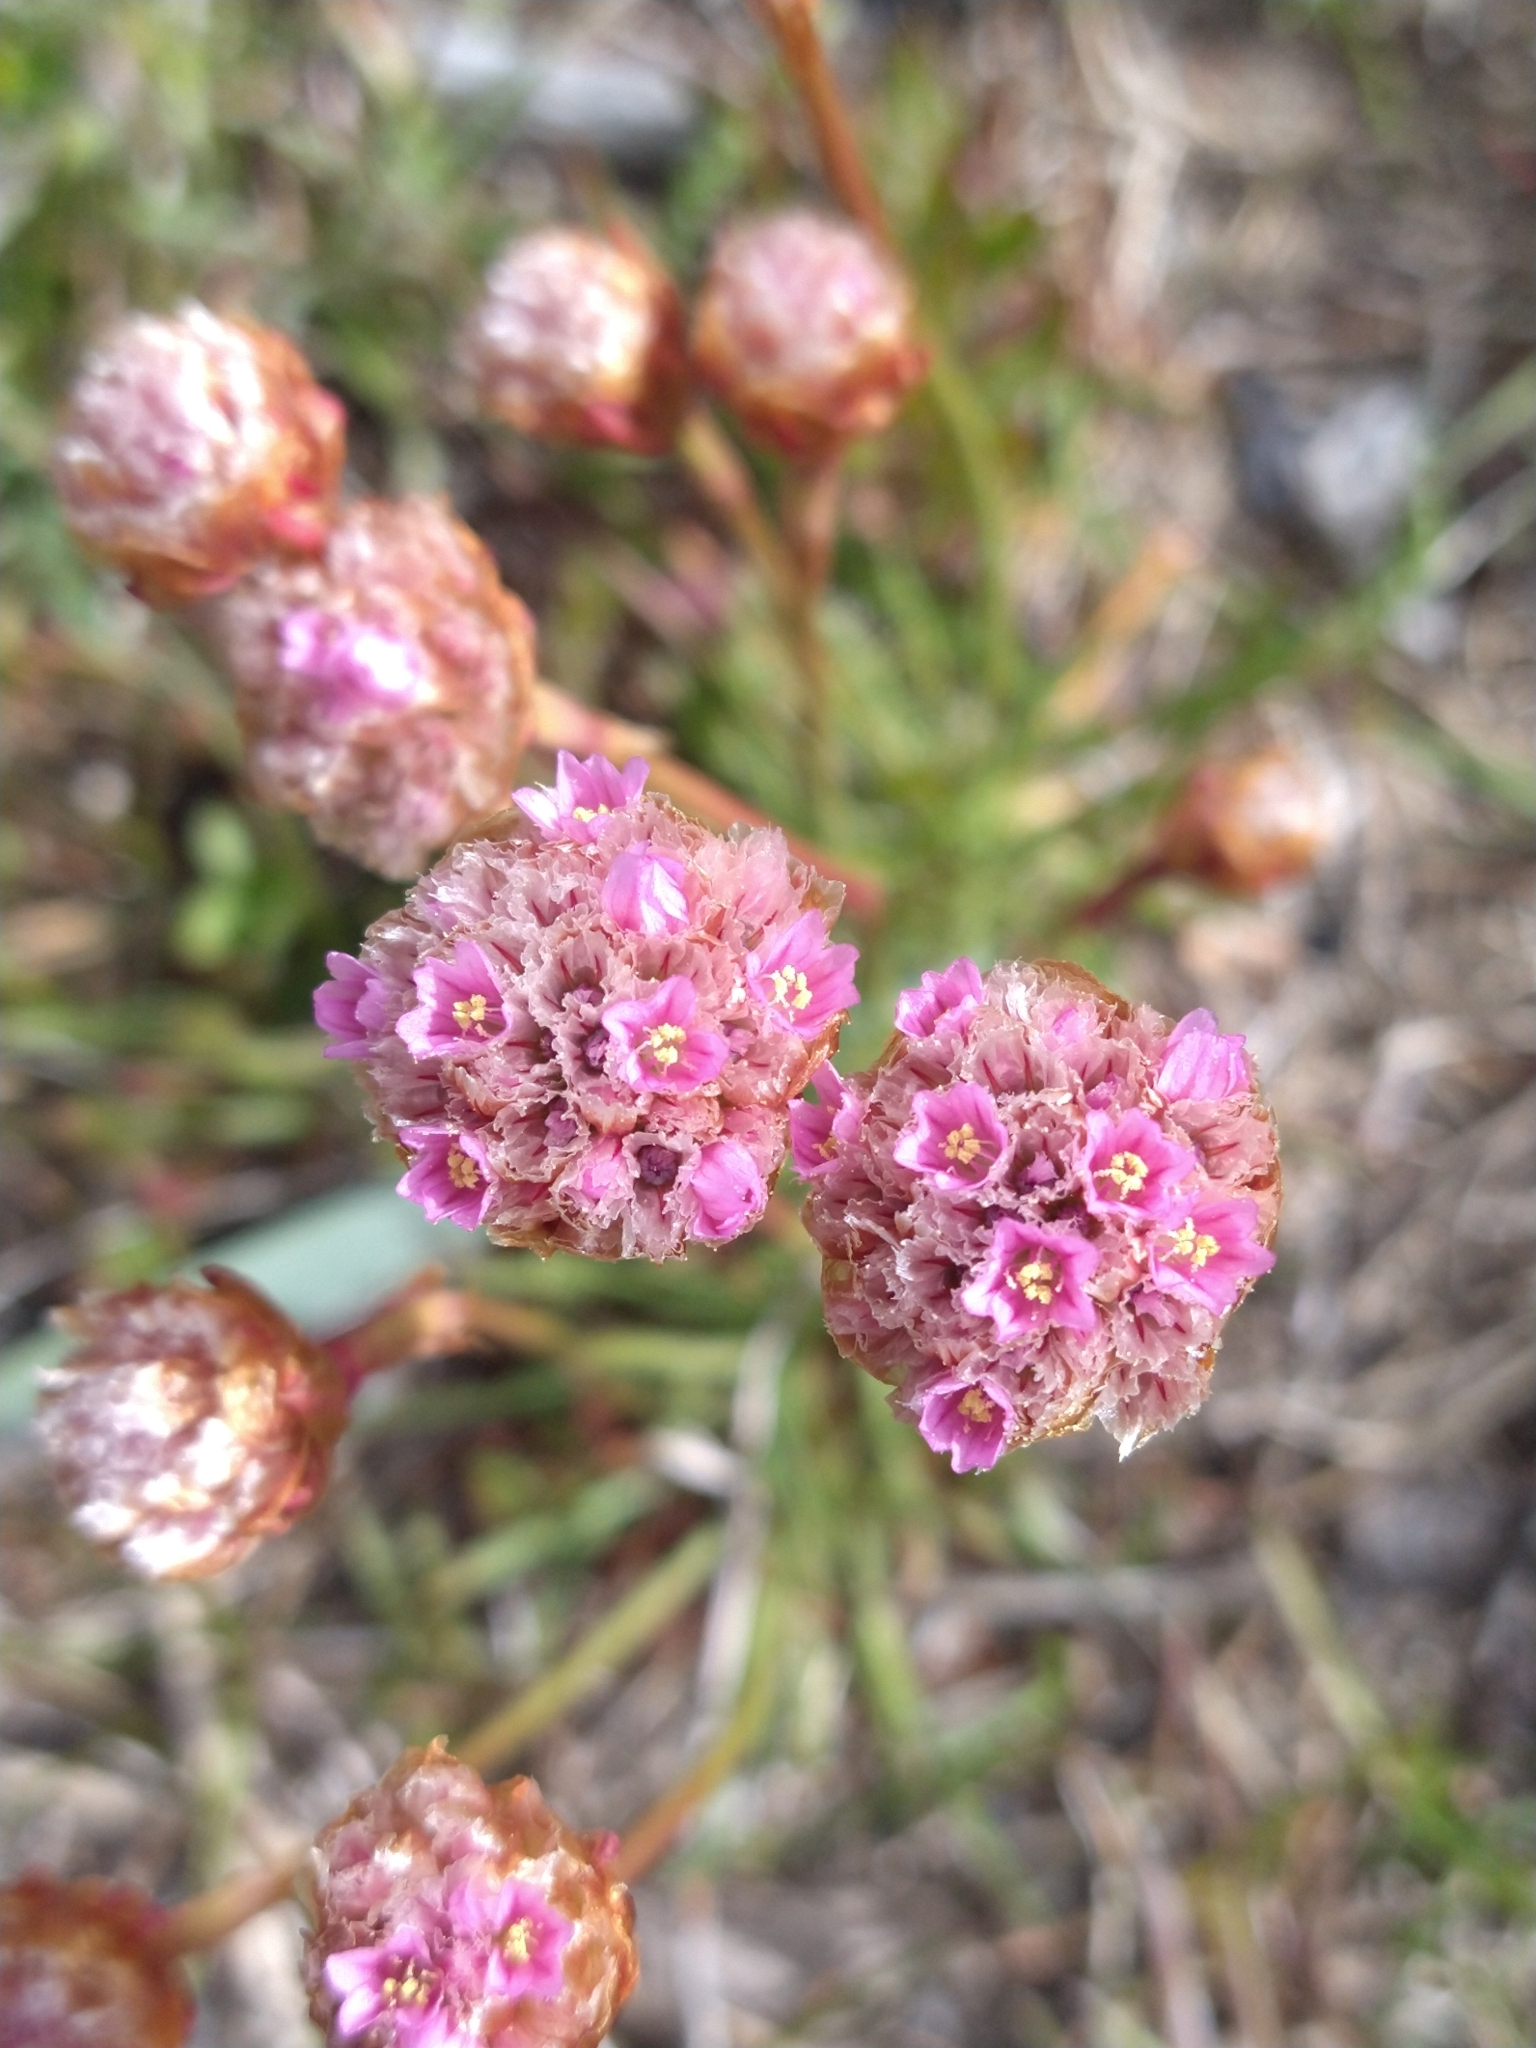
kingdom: Plantae
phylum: Tracheophyta
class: Magnoliopsida
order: Caryophyllales
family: Plumbaginaceae
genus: Armeria
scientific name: Armeria curvifolia
